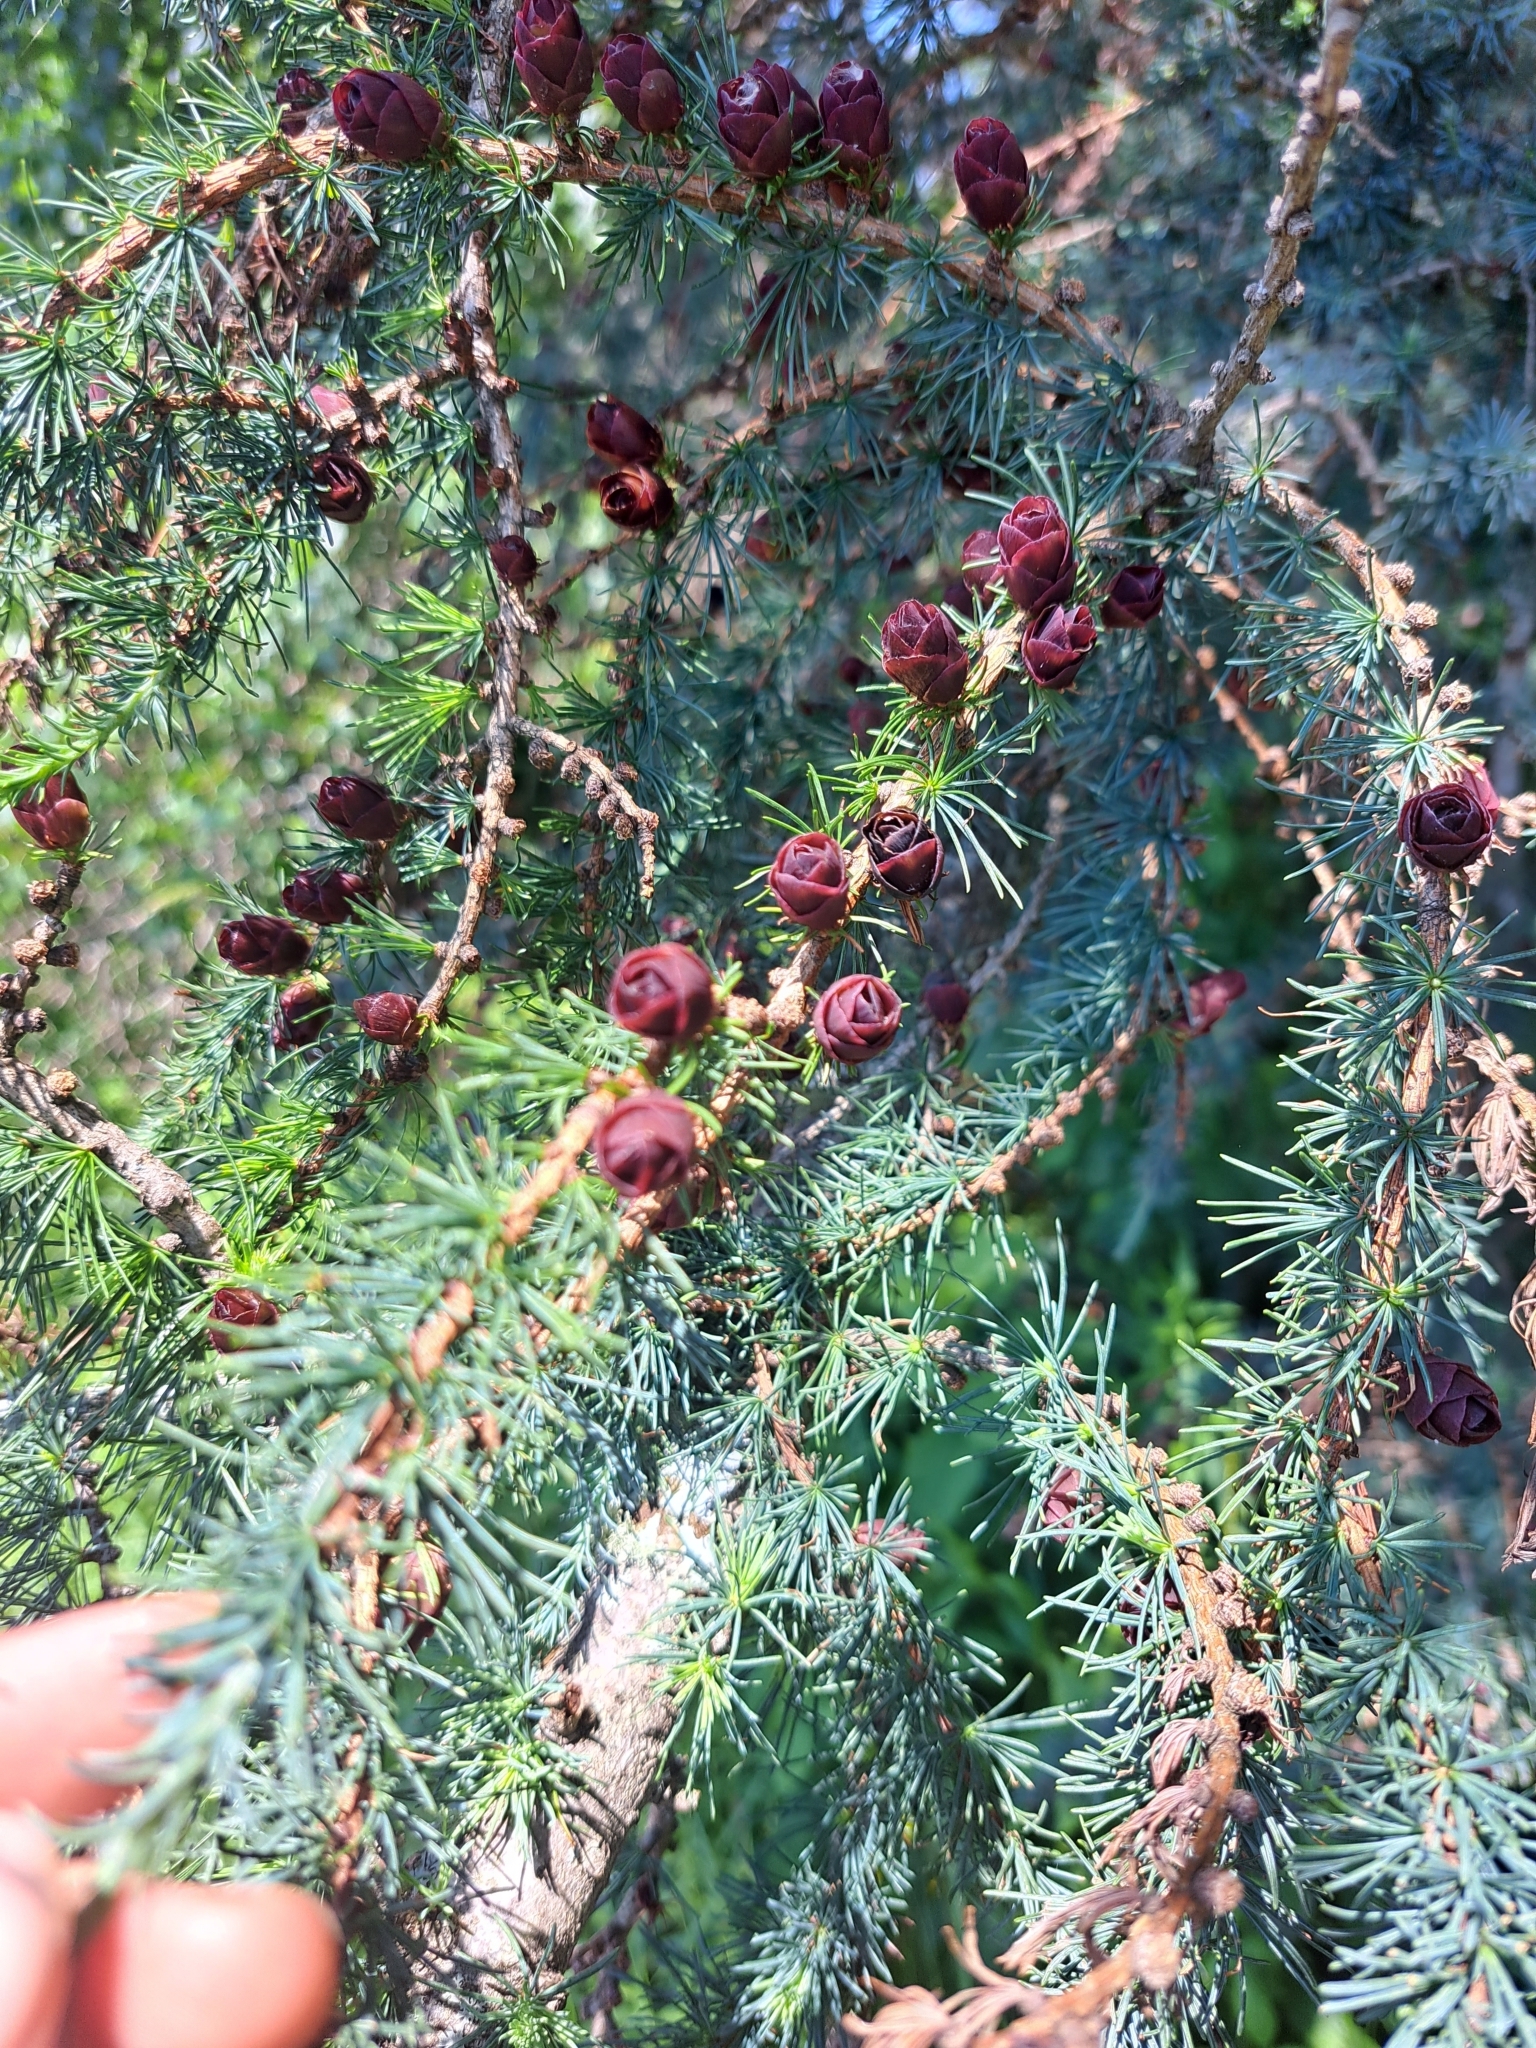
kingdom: Plantae
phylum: Tracheophyta
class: Pinopsida
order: Pinales
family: Pinaceae
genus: Larix
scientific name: Larix laricina
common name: American larch
